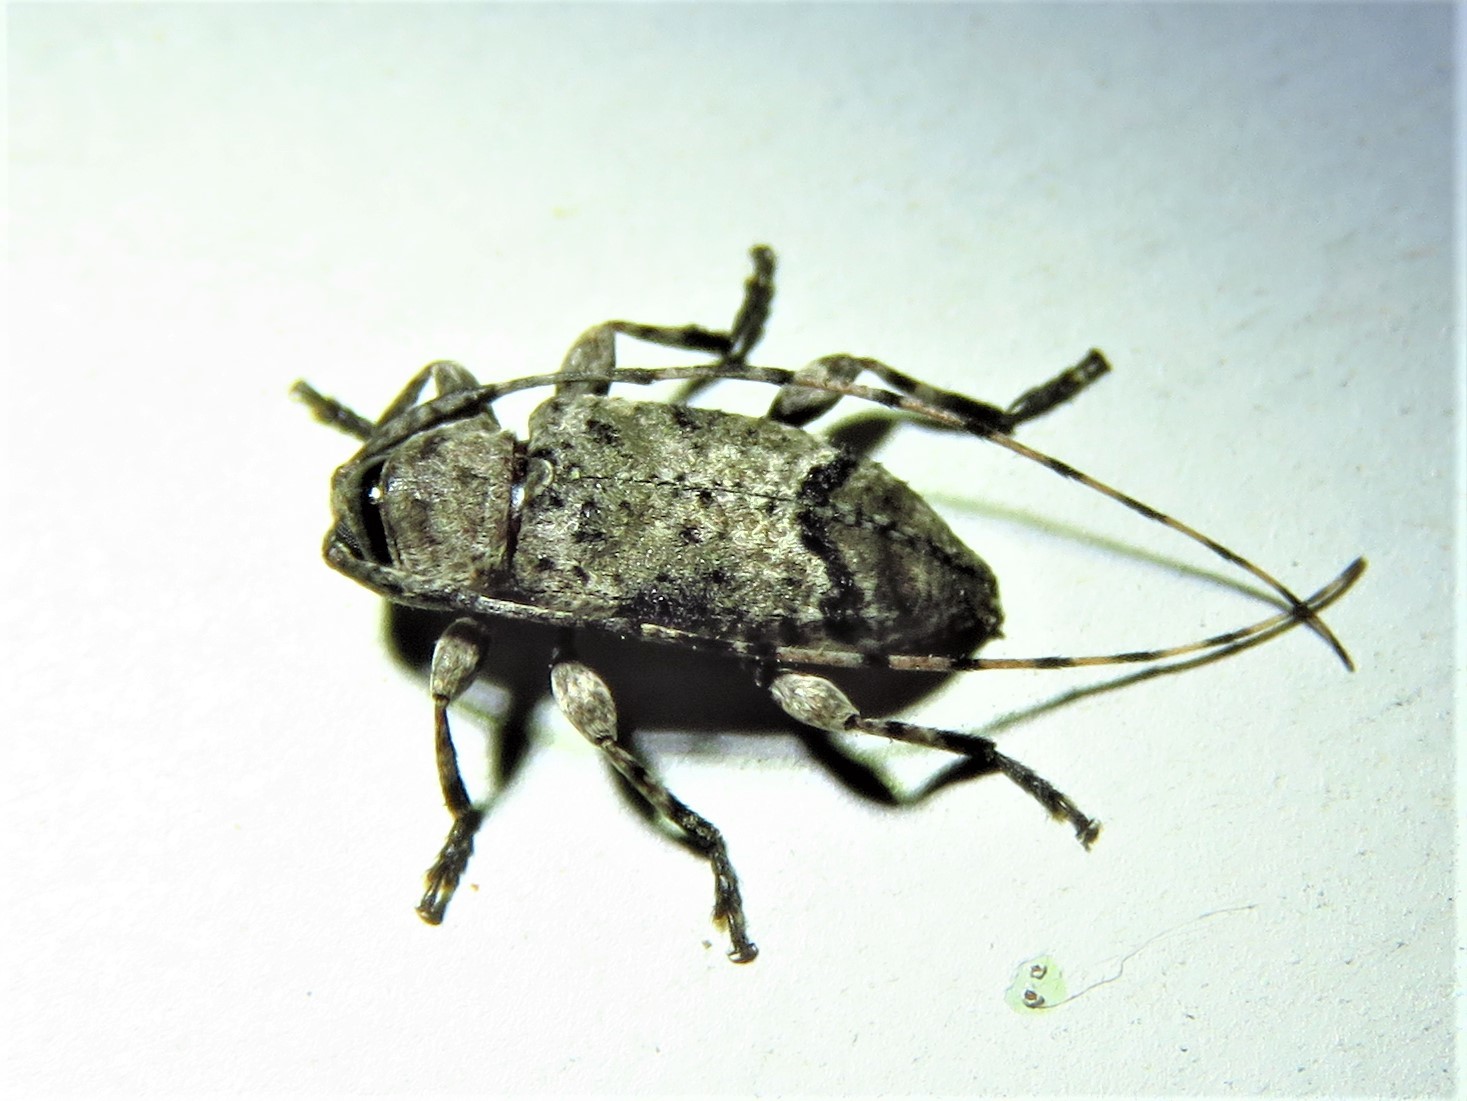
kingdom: Animalia
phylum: Arthropoda
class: Insecta
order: Coleoptera
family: Cerambycidae
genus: Sternidius
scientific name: Sternidius mimeticus
